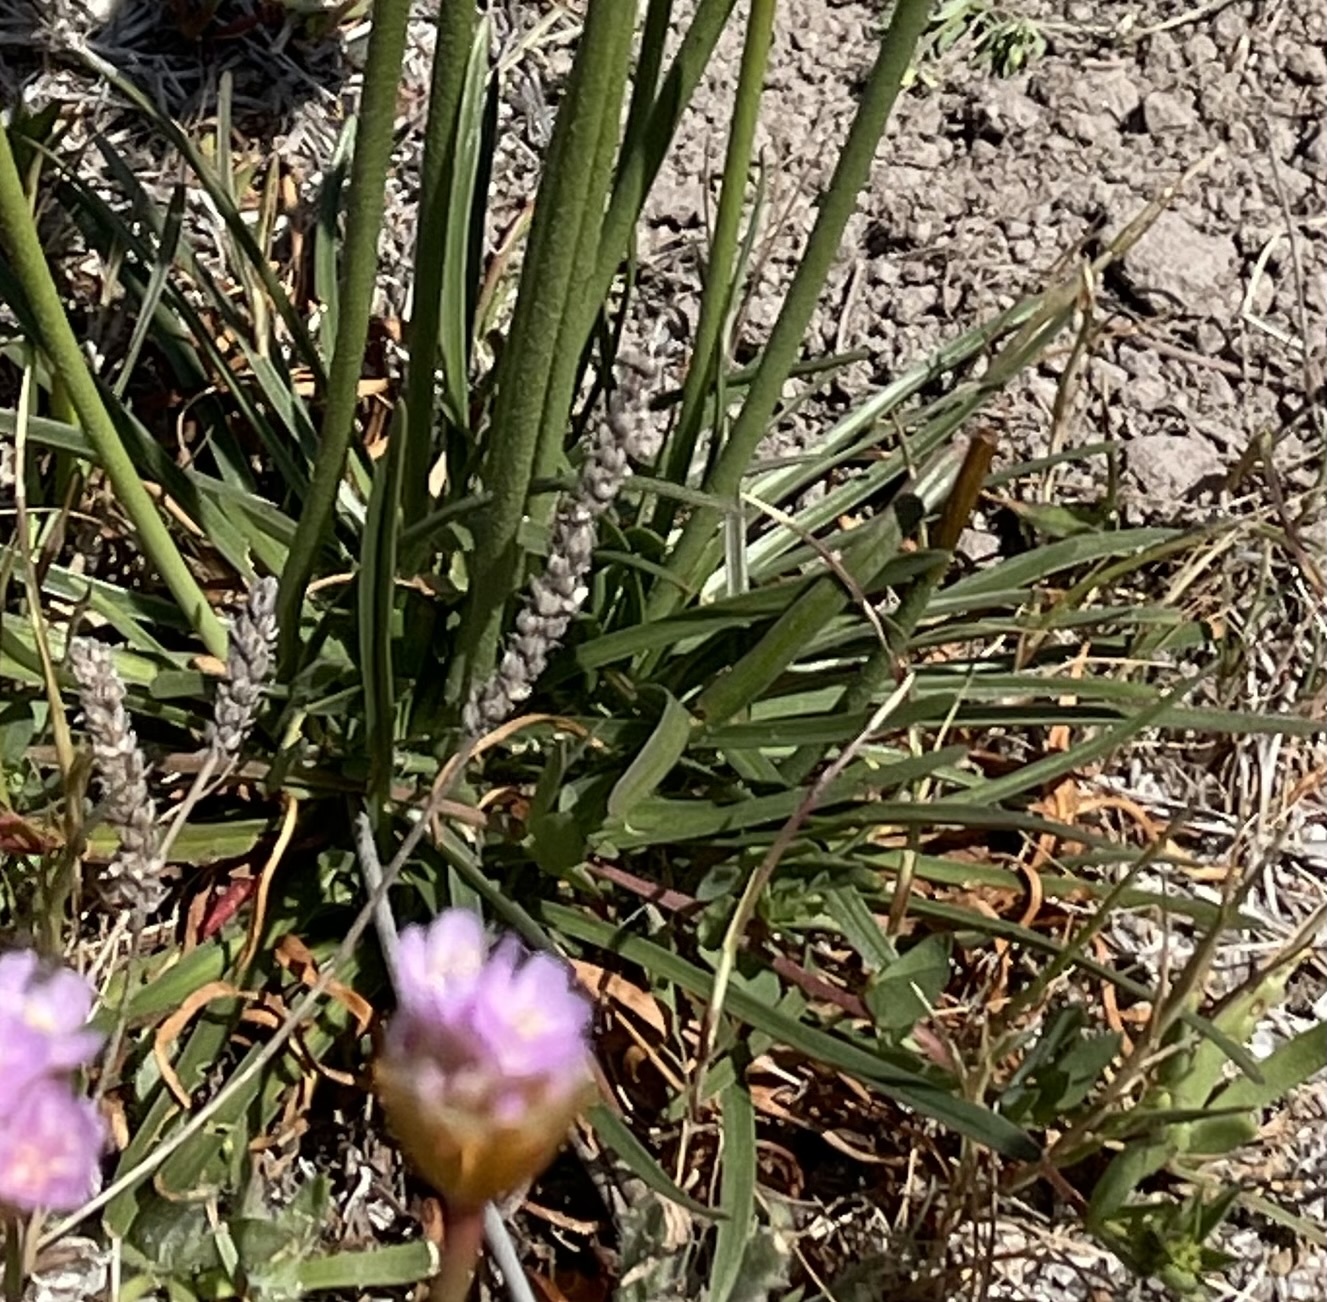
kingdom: Plantae
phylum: Tracheophyta
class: Magnoliopsida
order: Caryophyllales
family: Plumbaginaceae
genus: Armeria
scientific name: Armeria maritima
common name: Thrift
